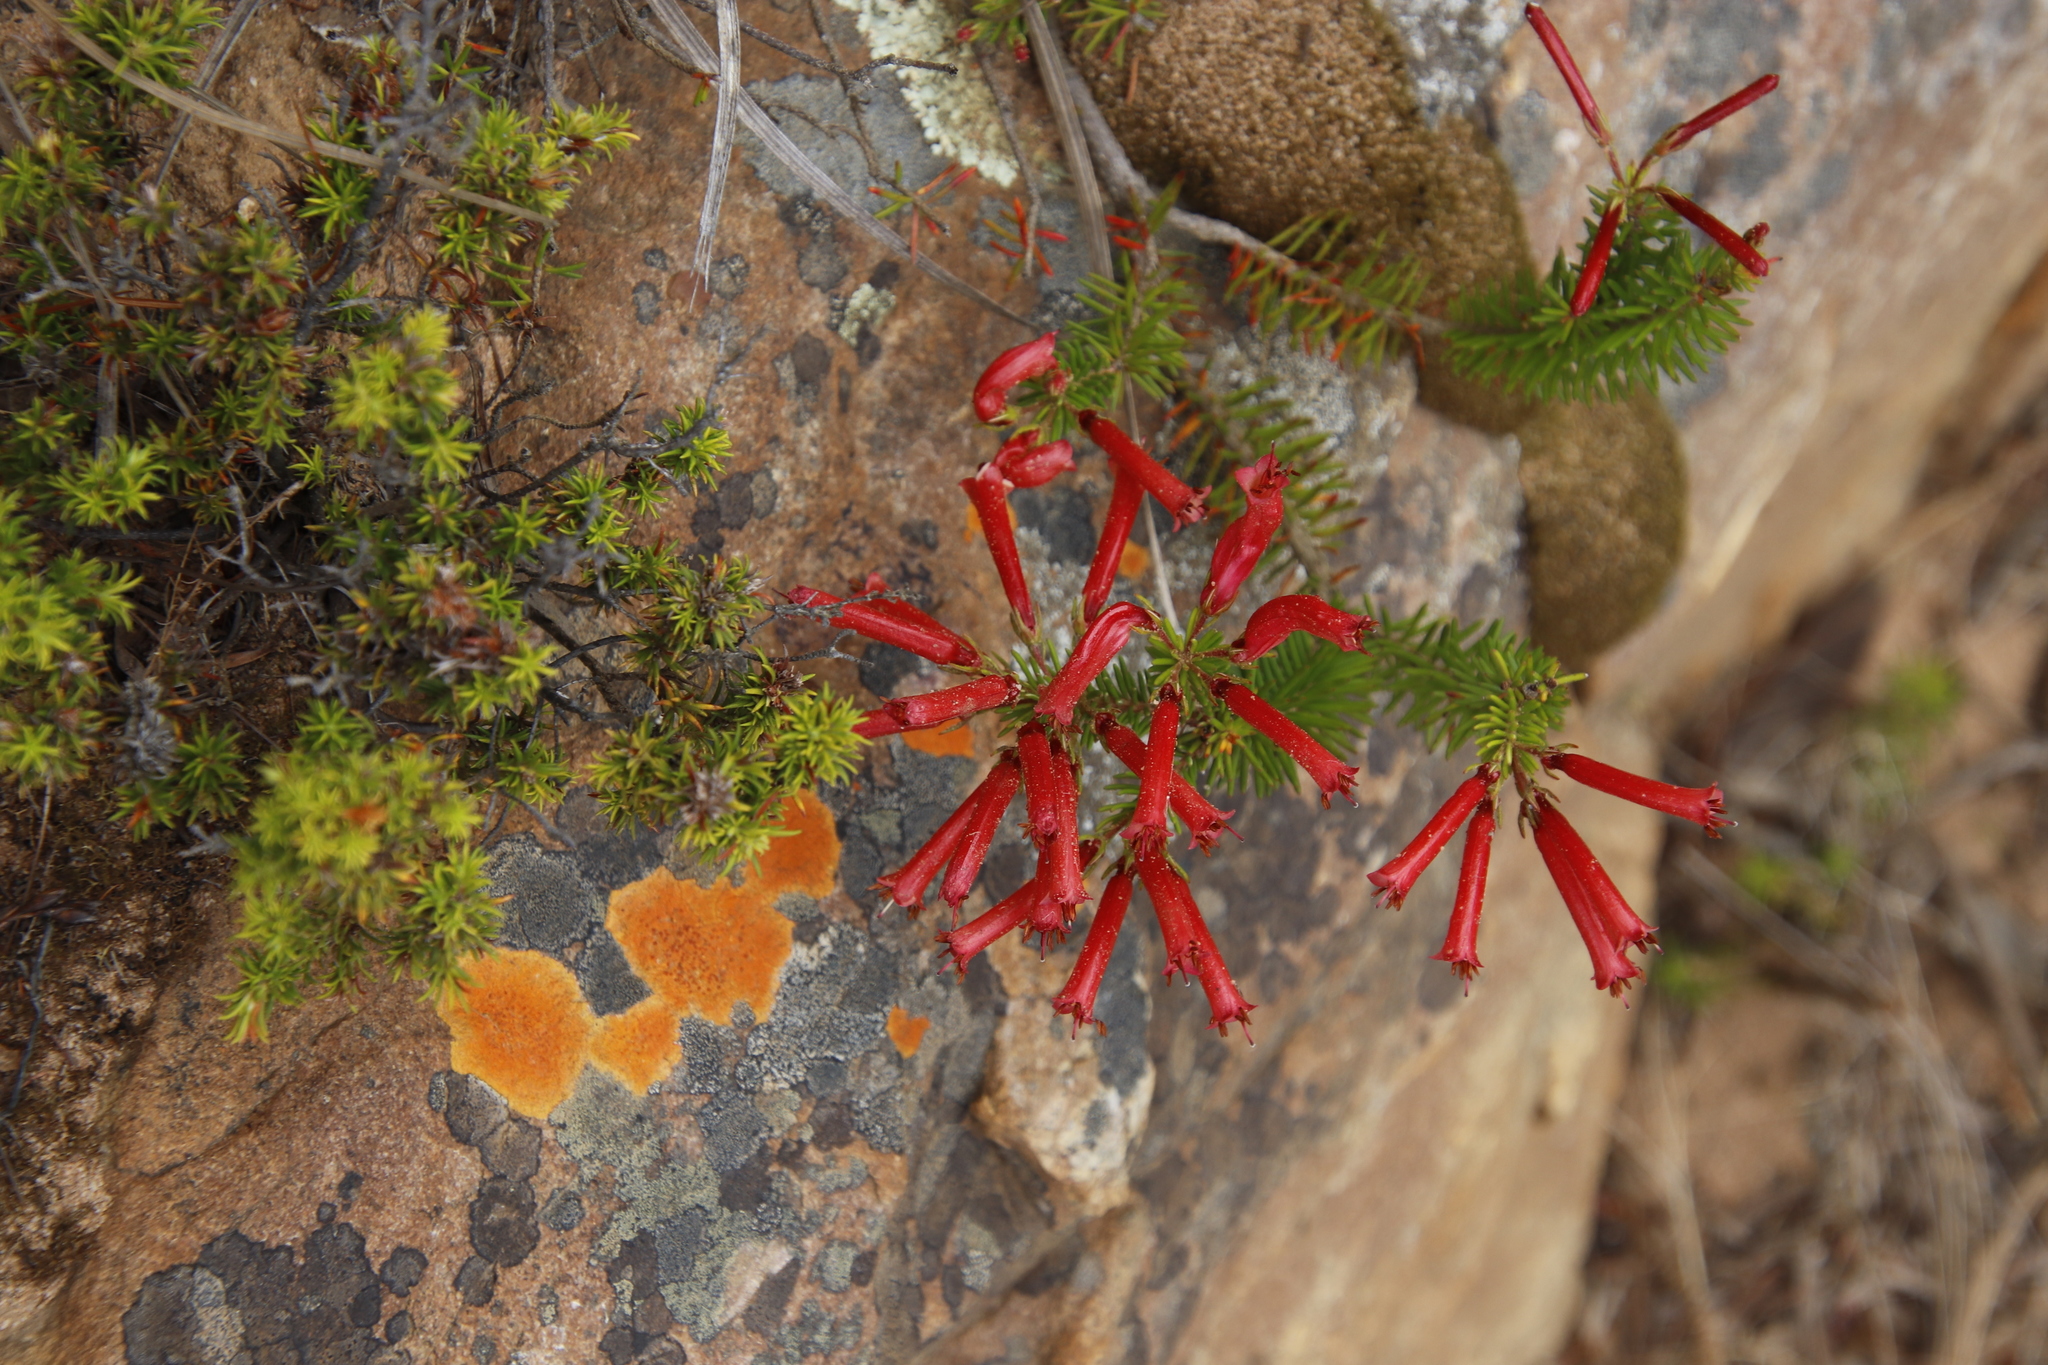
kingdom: Plantae
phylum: Tracheophyta
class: Magnoliopsida
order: Ericales
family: Ericaceae
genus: Erica
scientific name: Erica nevillei
